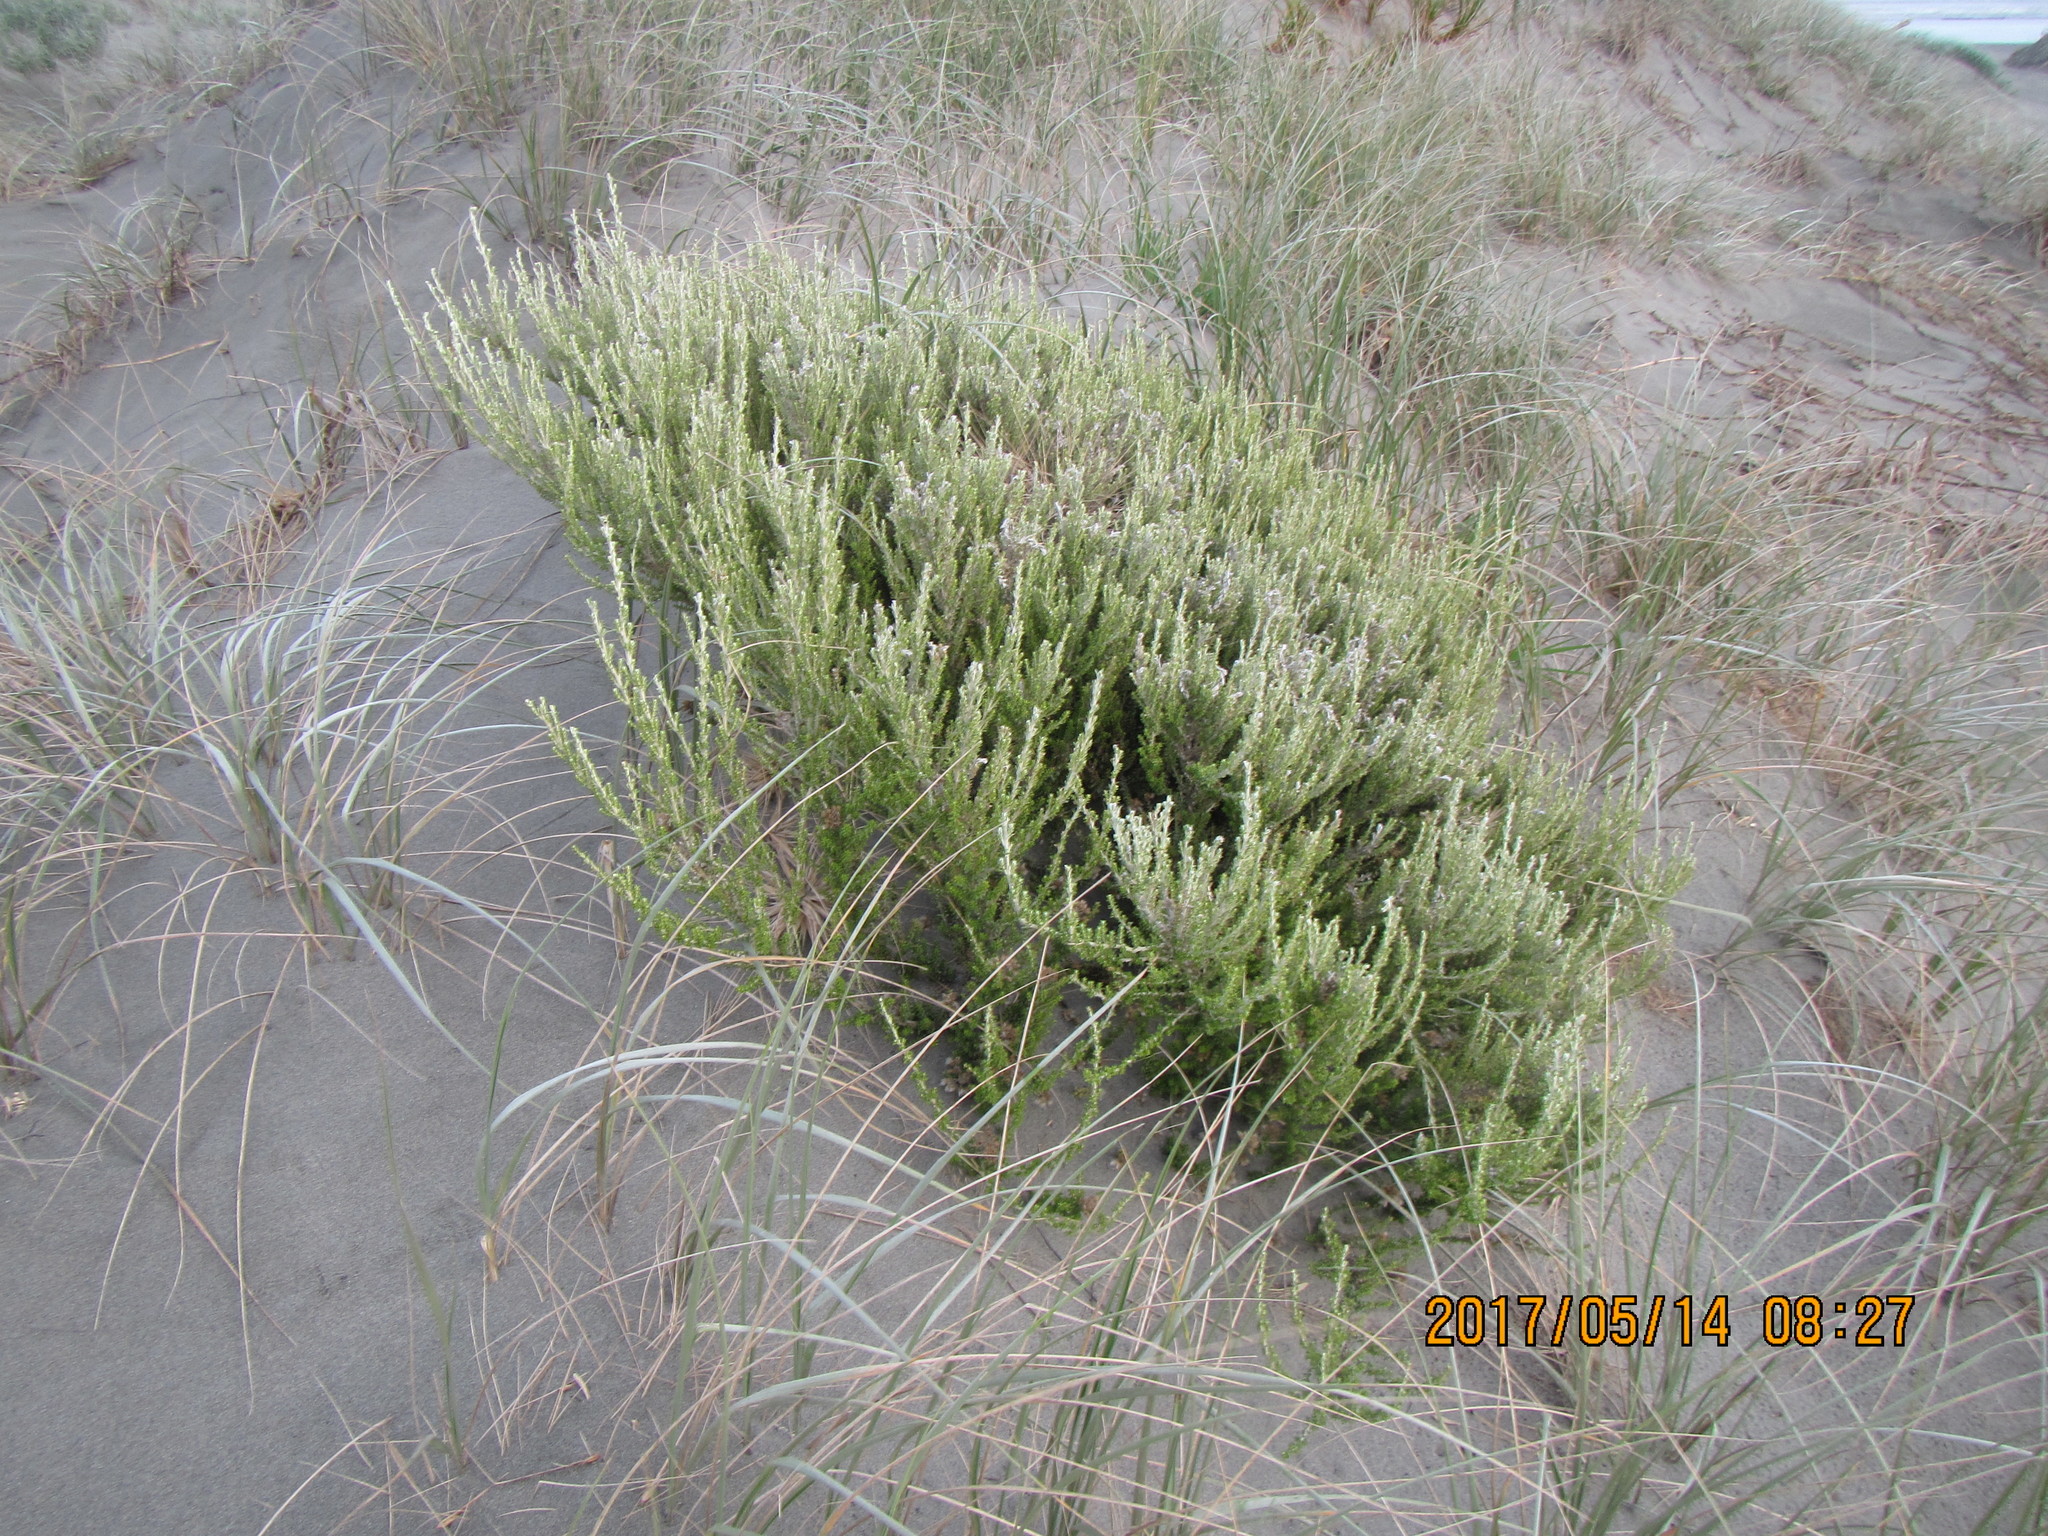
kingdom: Plantae
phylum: Tracheophyta
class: Magnoliopsida
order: Asterales
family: Asteraceae
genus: Ozothamnus
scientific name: Ozothamnus leptophyllus
